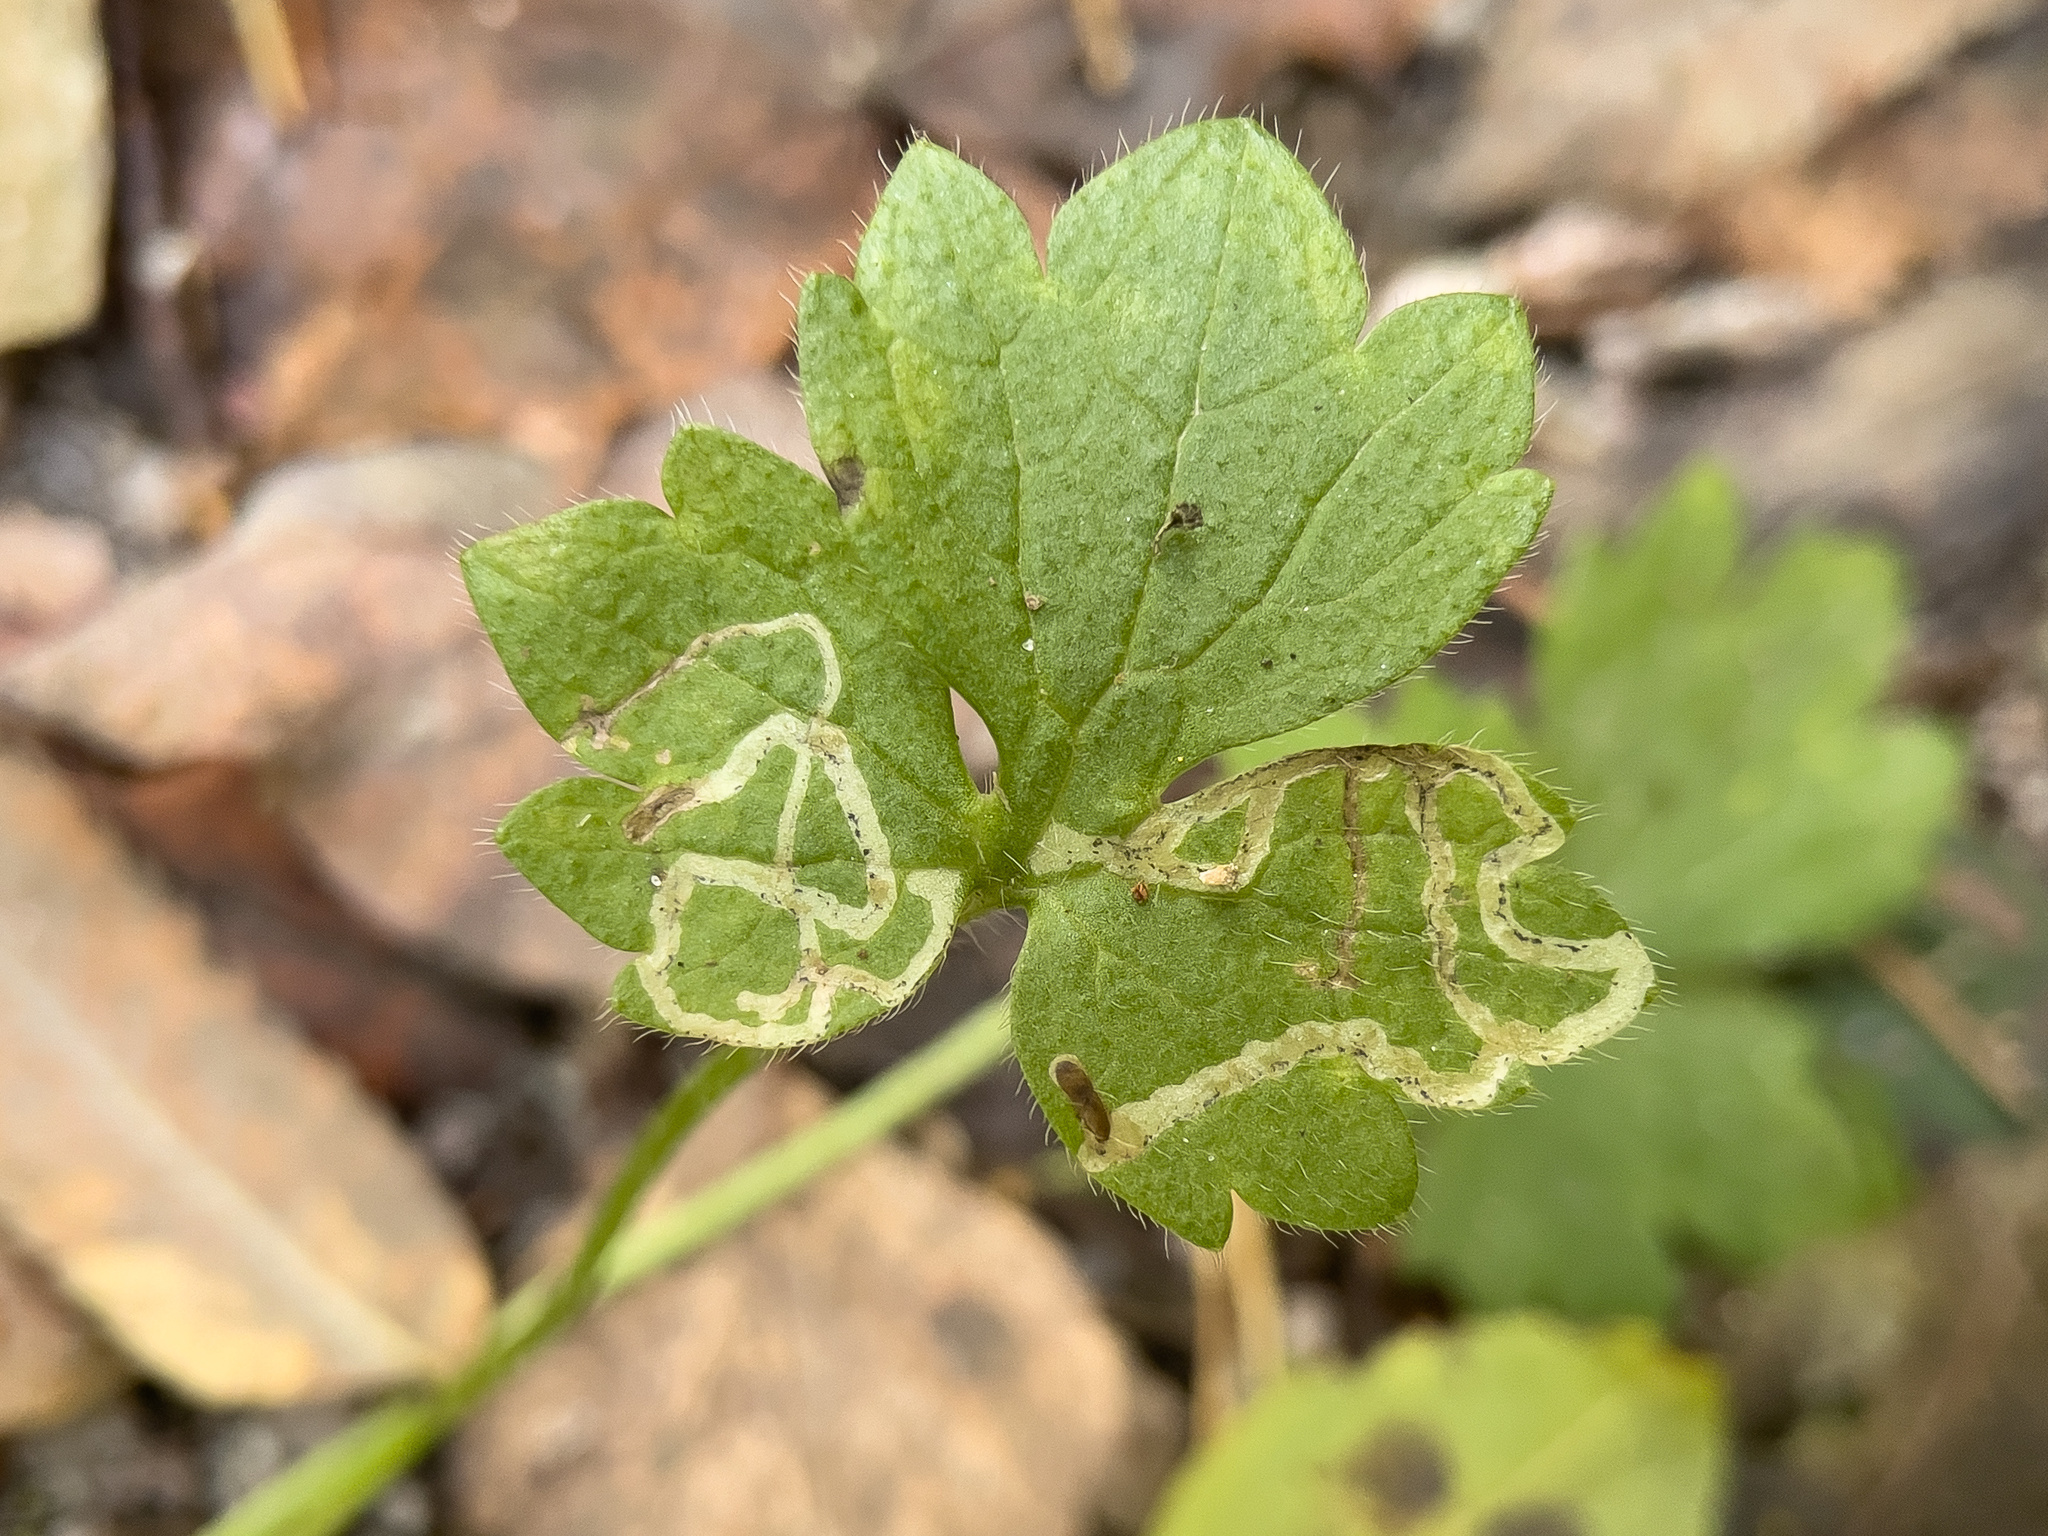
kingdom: Animalia
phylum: Arthropoda
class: Insecta
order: Diptera
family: Agromyzidae
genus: Phytomyza
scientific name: Phytomyza ranunculi
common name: Leaf-miner fly
